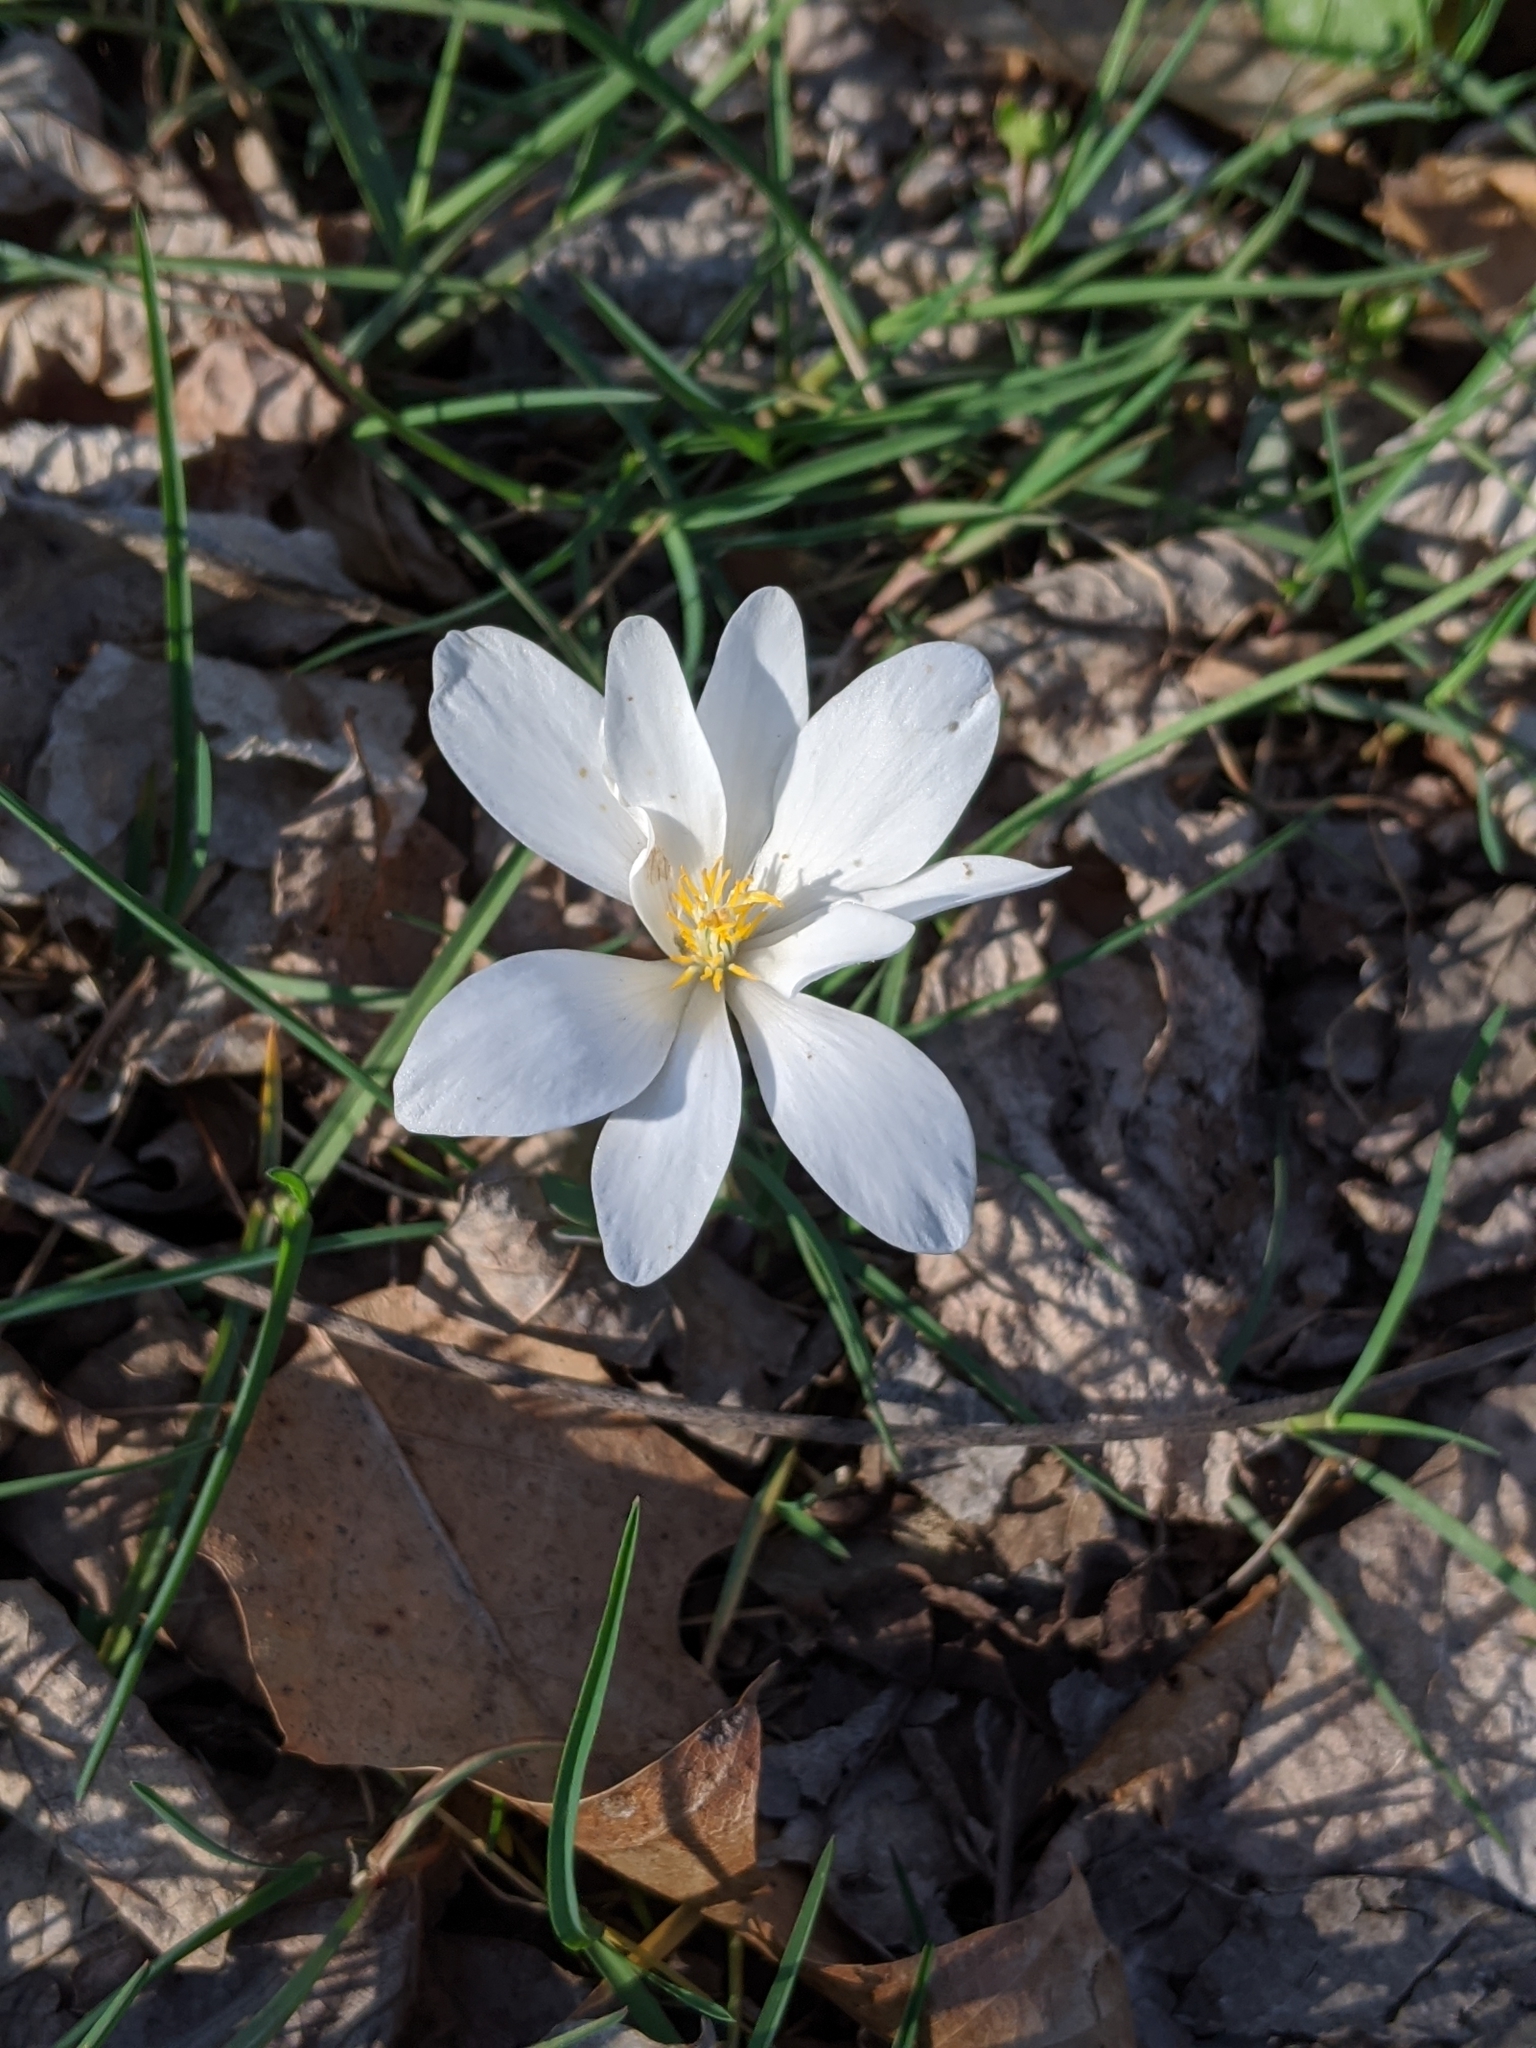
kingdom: Plantae
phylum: Tracheophyta
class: Magnoliopsida
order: Ranunculales
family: Papaveraceae
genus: Sanguinaria
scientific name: Sanguinaria canadensis
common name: Bloodroot
